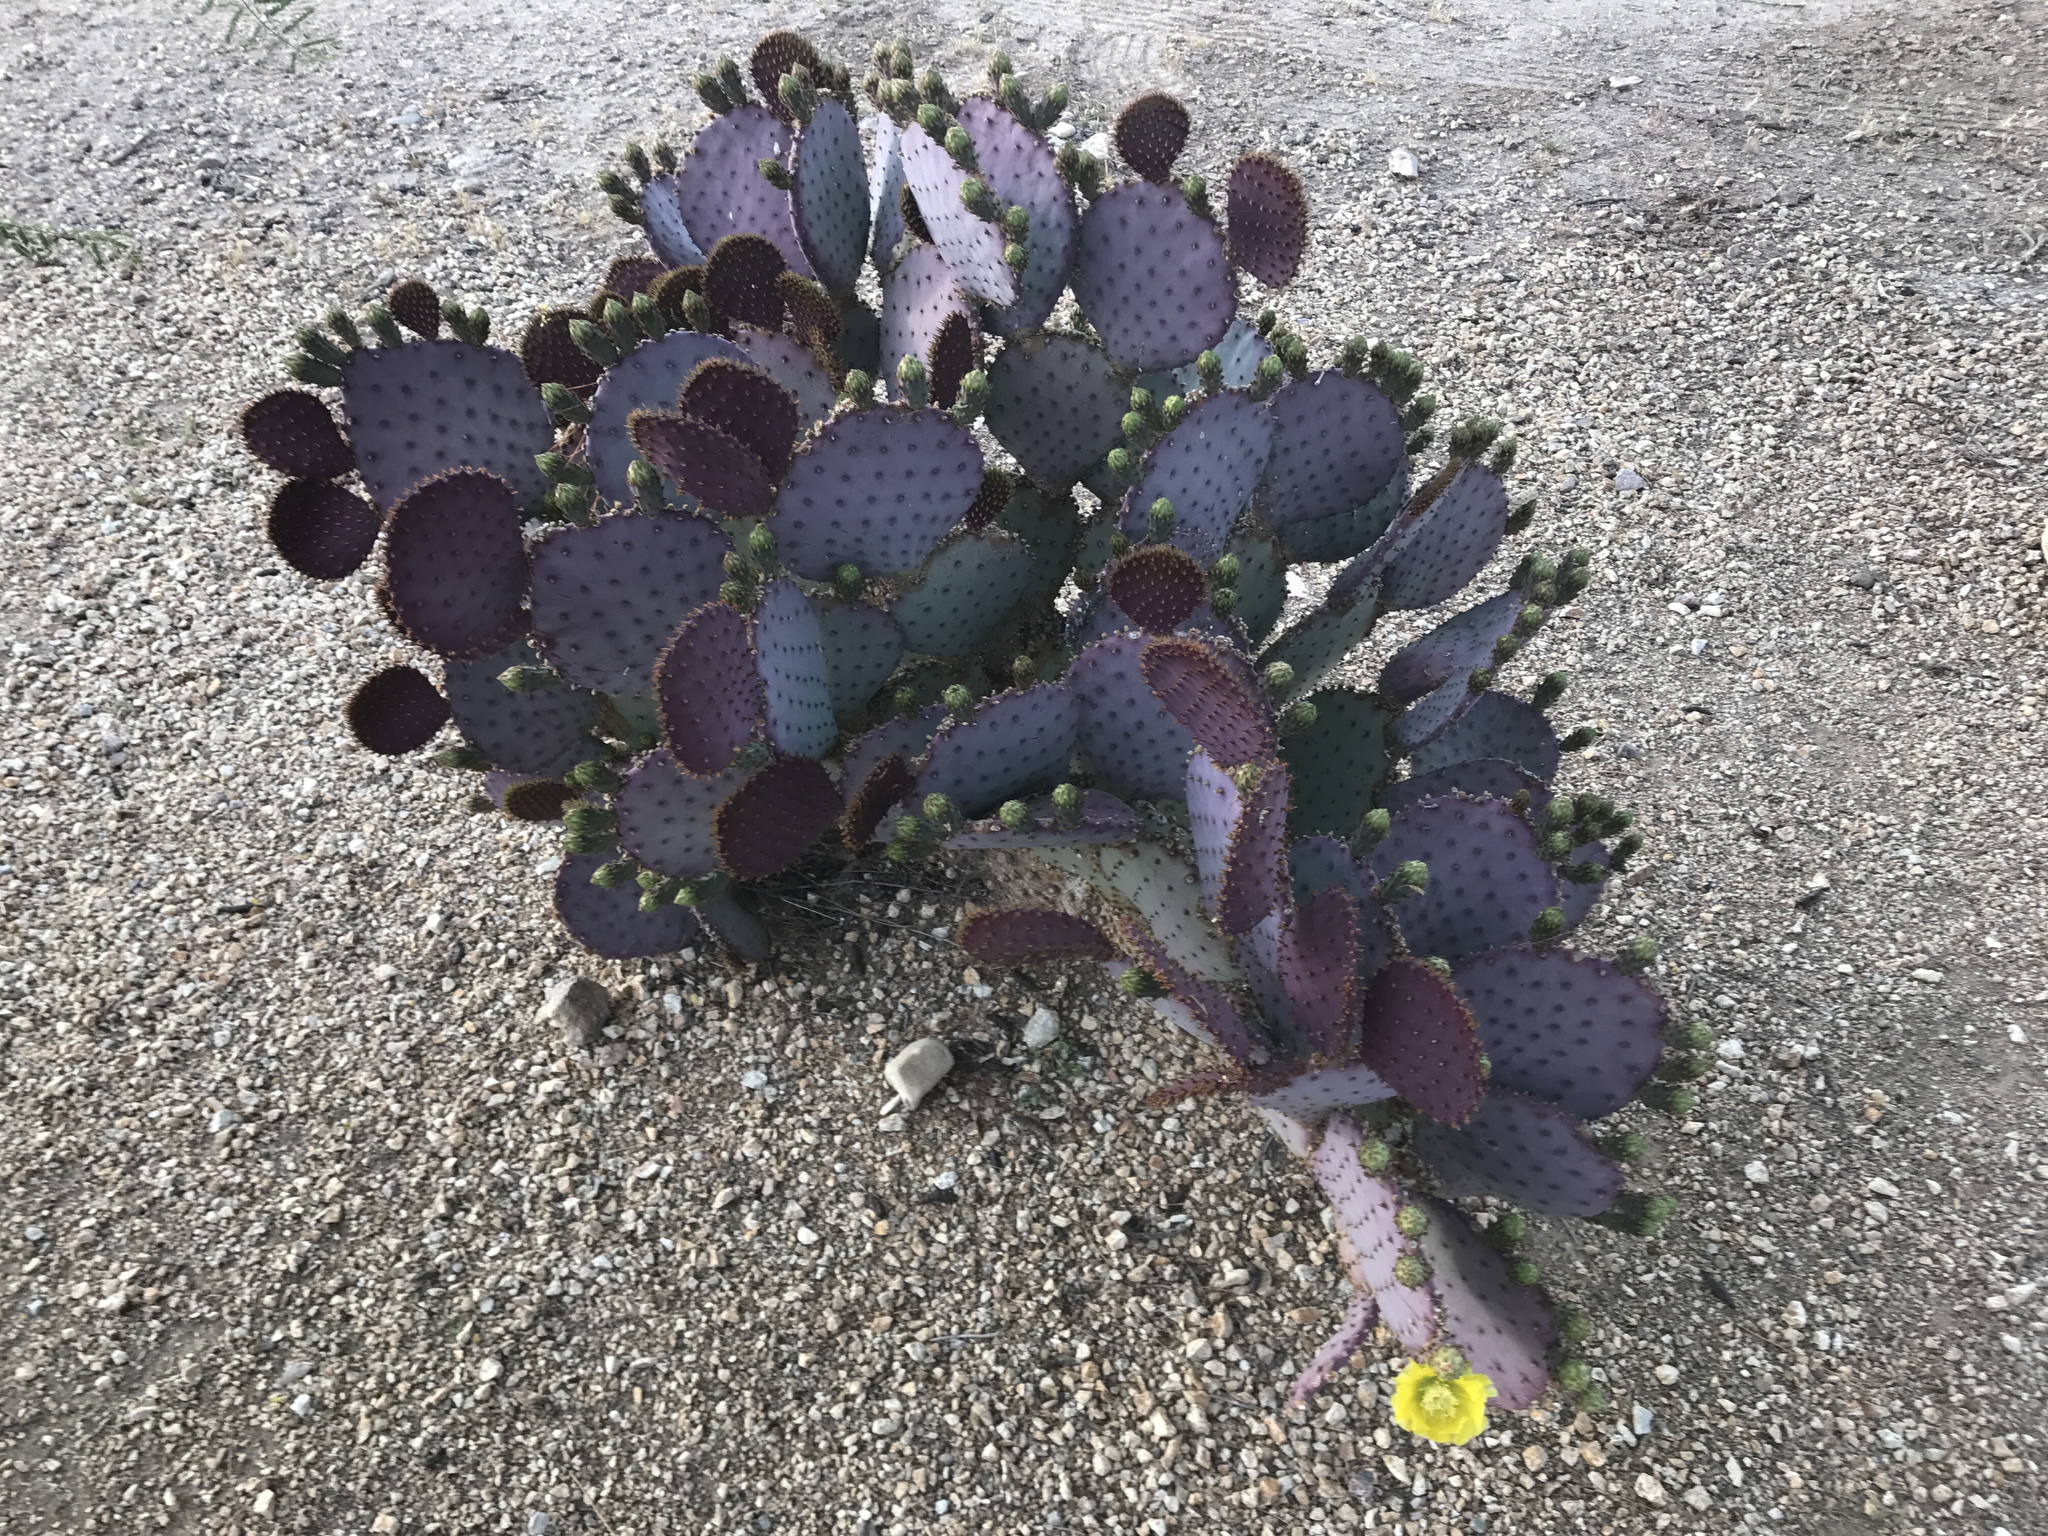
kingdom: Plantae
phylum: Tracheophyta
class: Magnoliopsida
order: Caryophyllales
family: Cactaceae
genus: Opuntia
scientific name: Opuntia gosseliniana
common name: Violet prickly-pear
